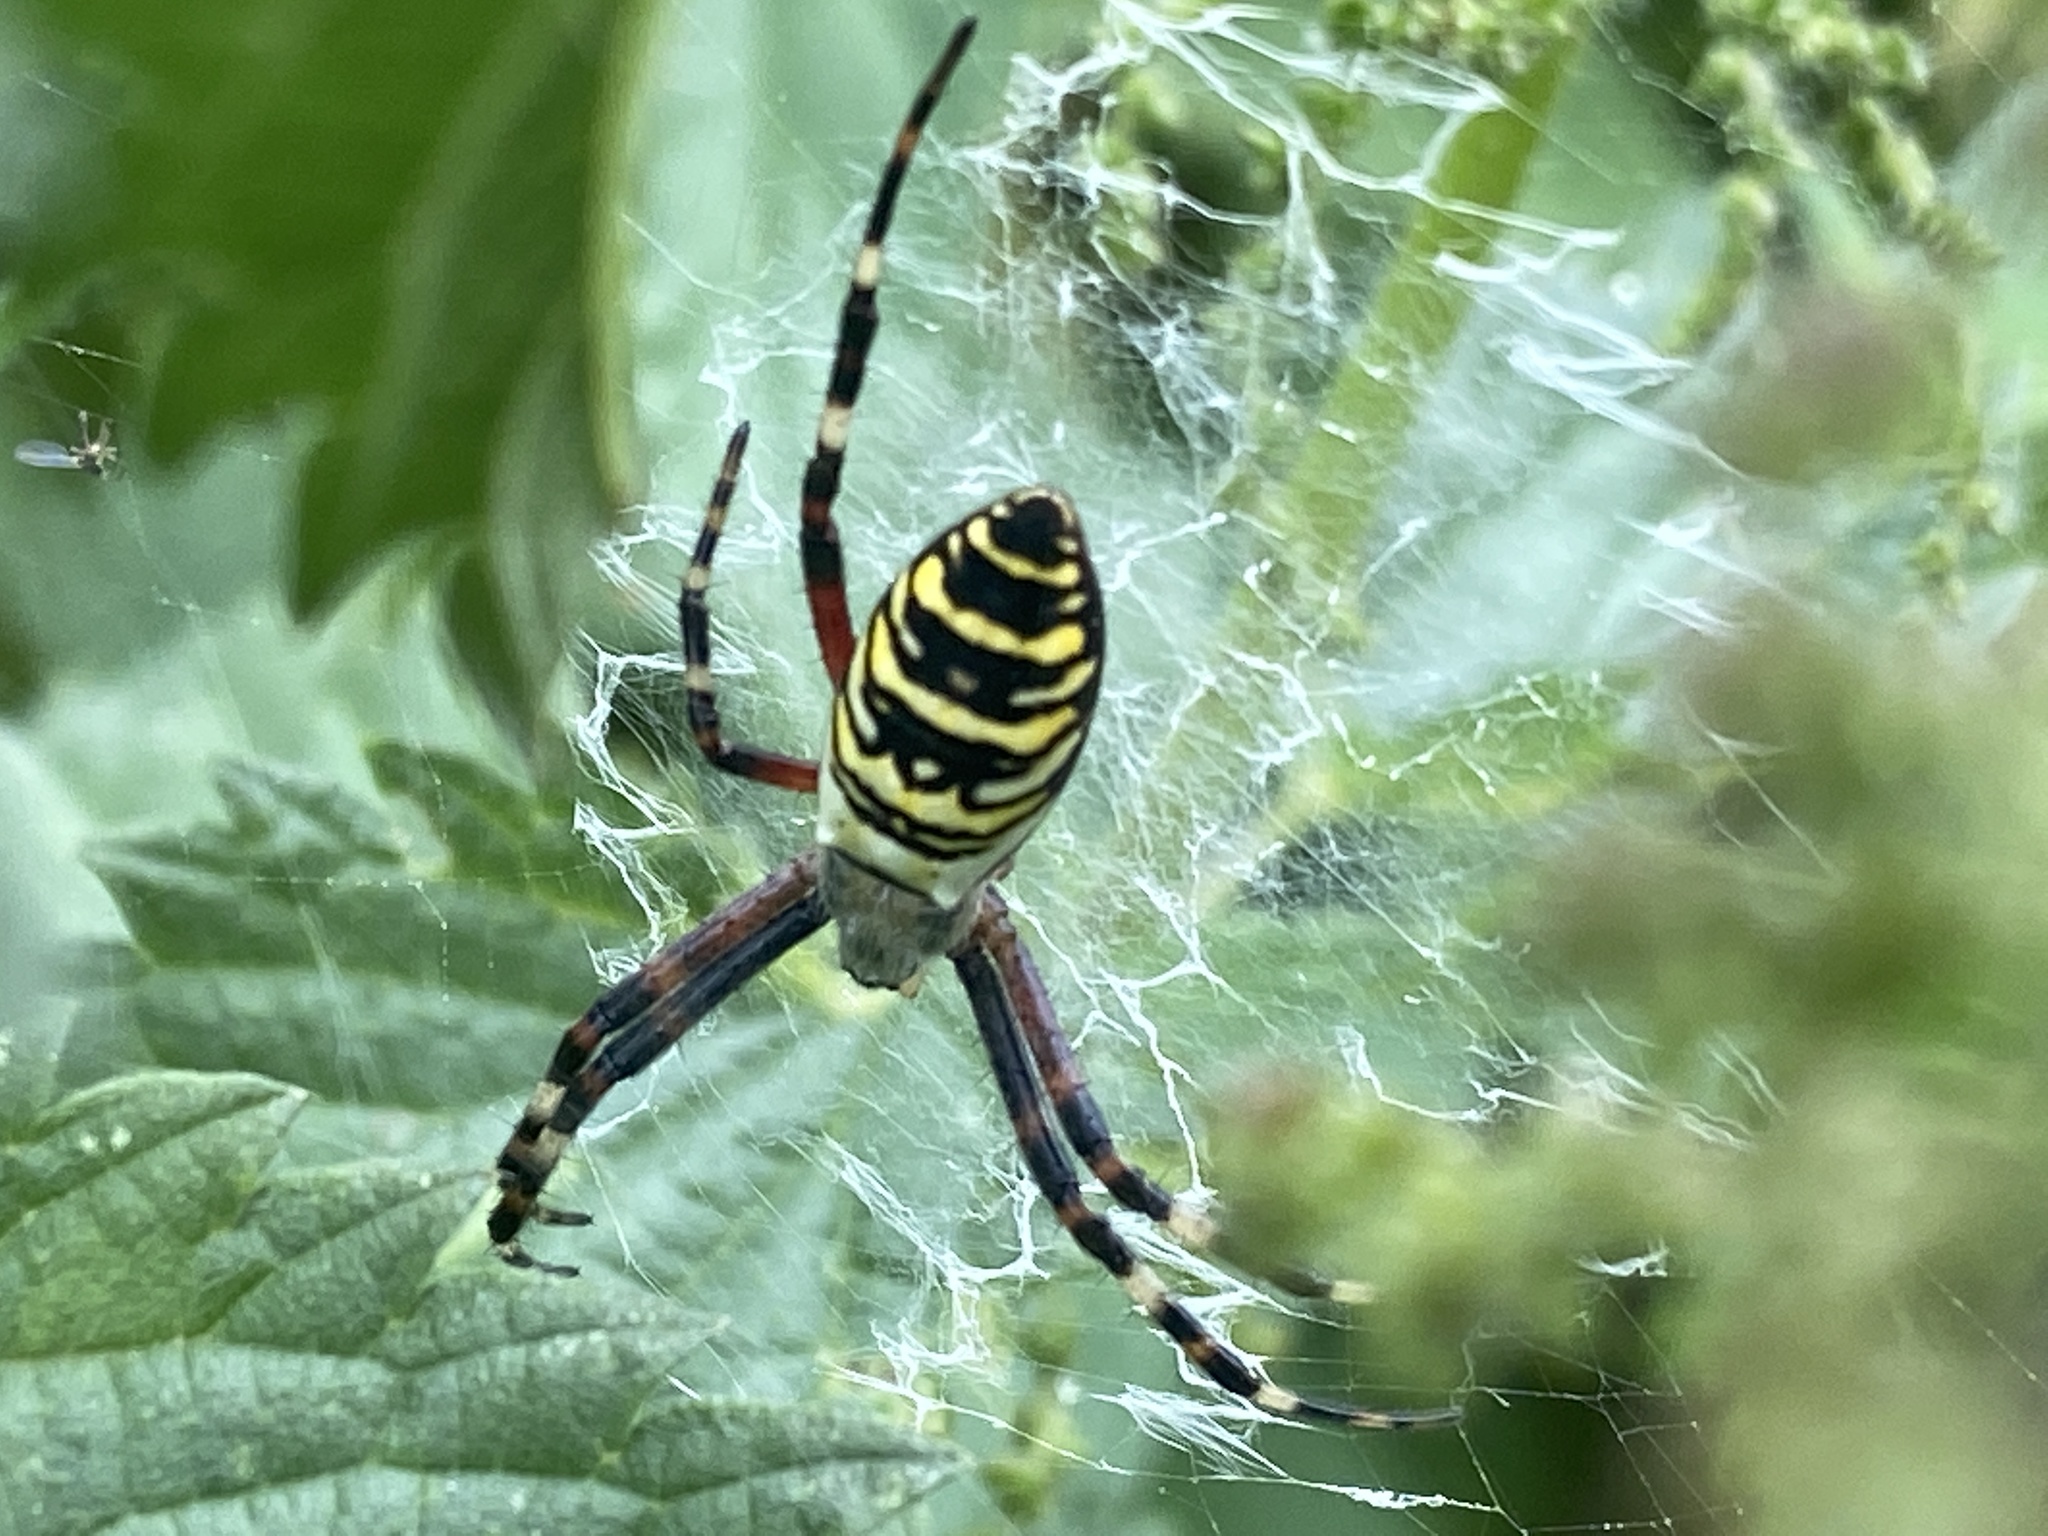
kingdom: Animalia
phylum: Arthropoda
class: Arachnida
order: Araneae
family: Araneidae
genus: Argiope
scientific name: Argiope bruennichi
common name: Wasp spider
